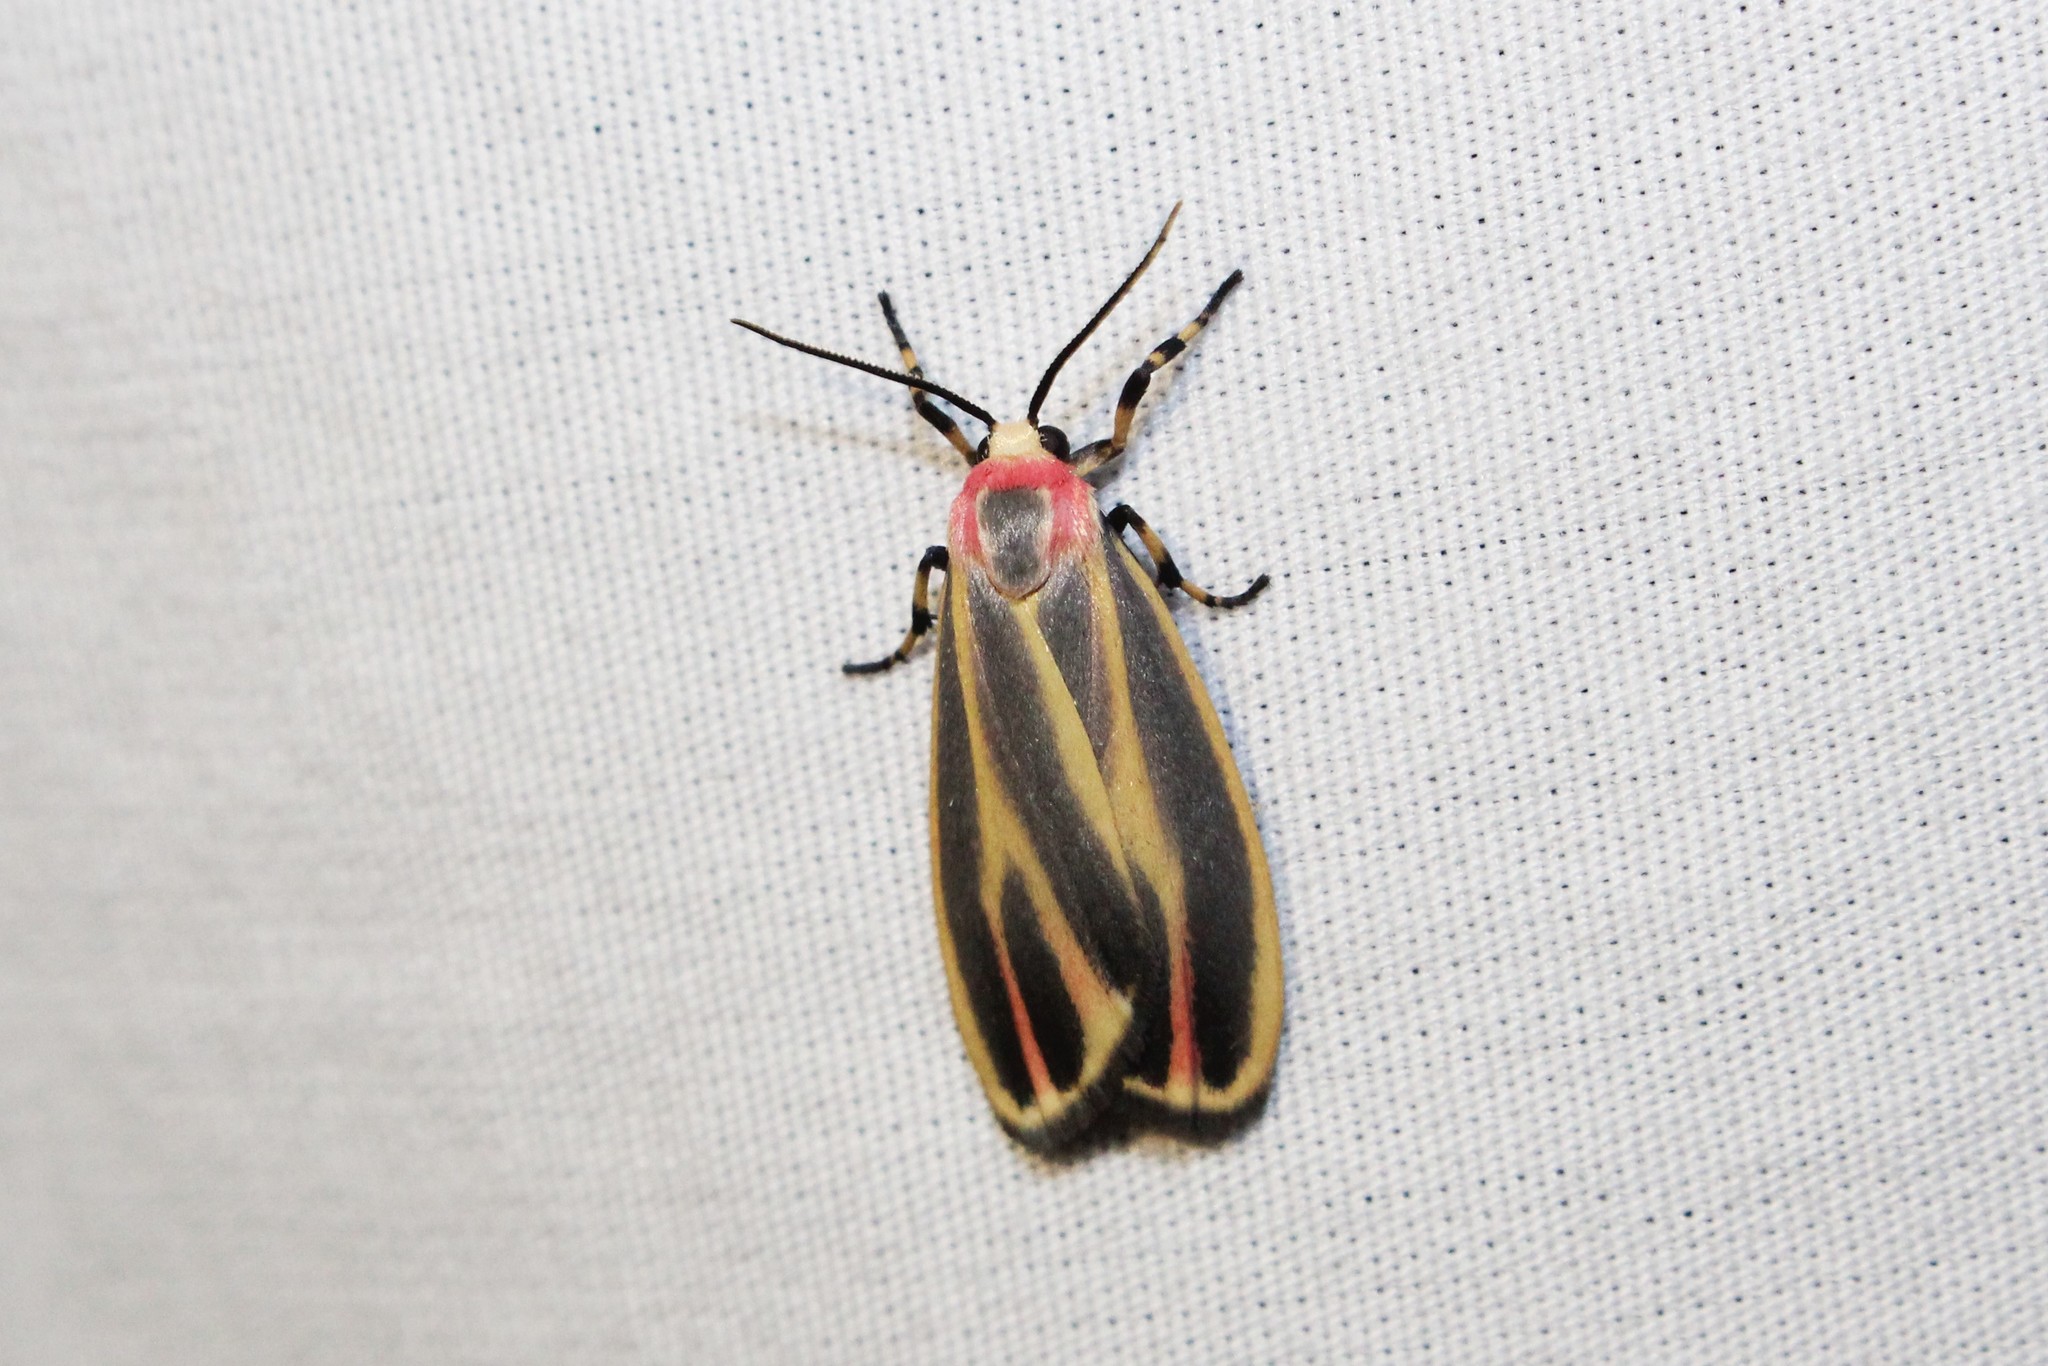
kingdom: Animalia
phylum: Arthropoda
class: Insecta
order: Lepidoptera
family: Erebidae
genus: Hypoprepia
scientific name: Hypoprepia fucosa
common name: Painted lichen moth
